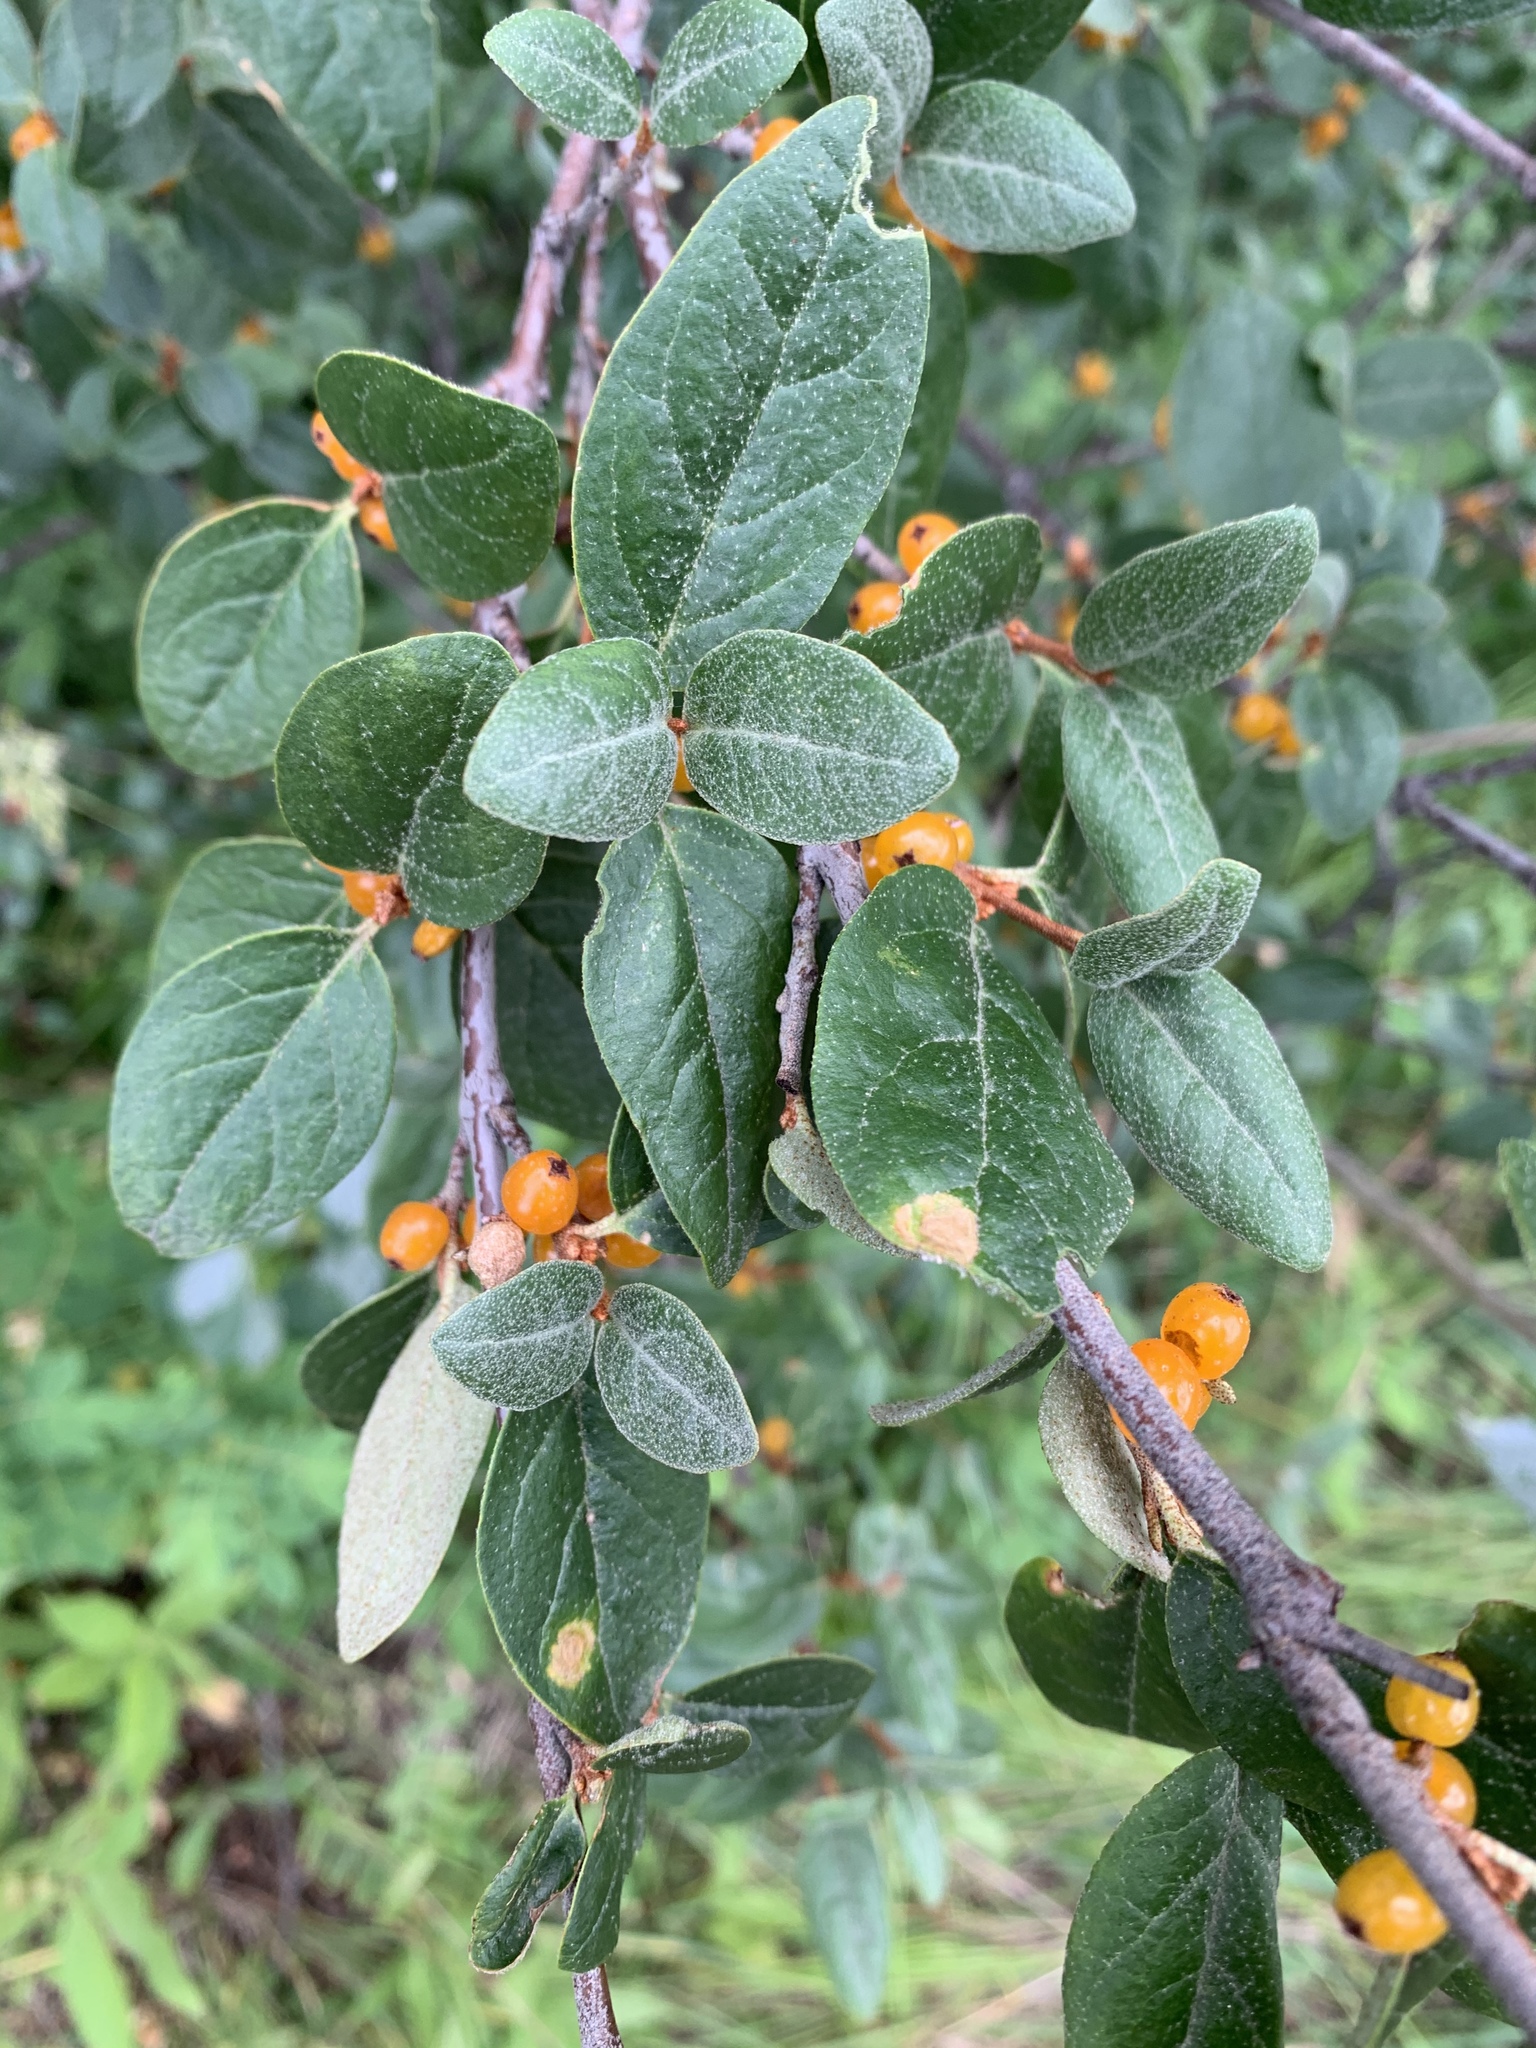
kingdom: Plantae
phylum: Tracheophyta
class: Magnoliopsida
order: Rosales
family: Elaeagnaceae
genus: Shepherdia
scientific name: Shepherdia canadensis
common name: Soapberry
